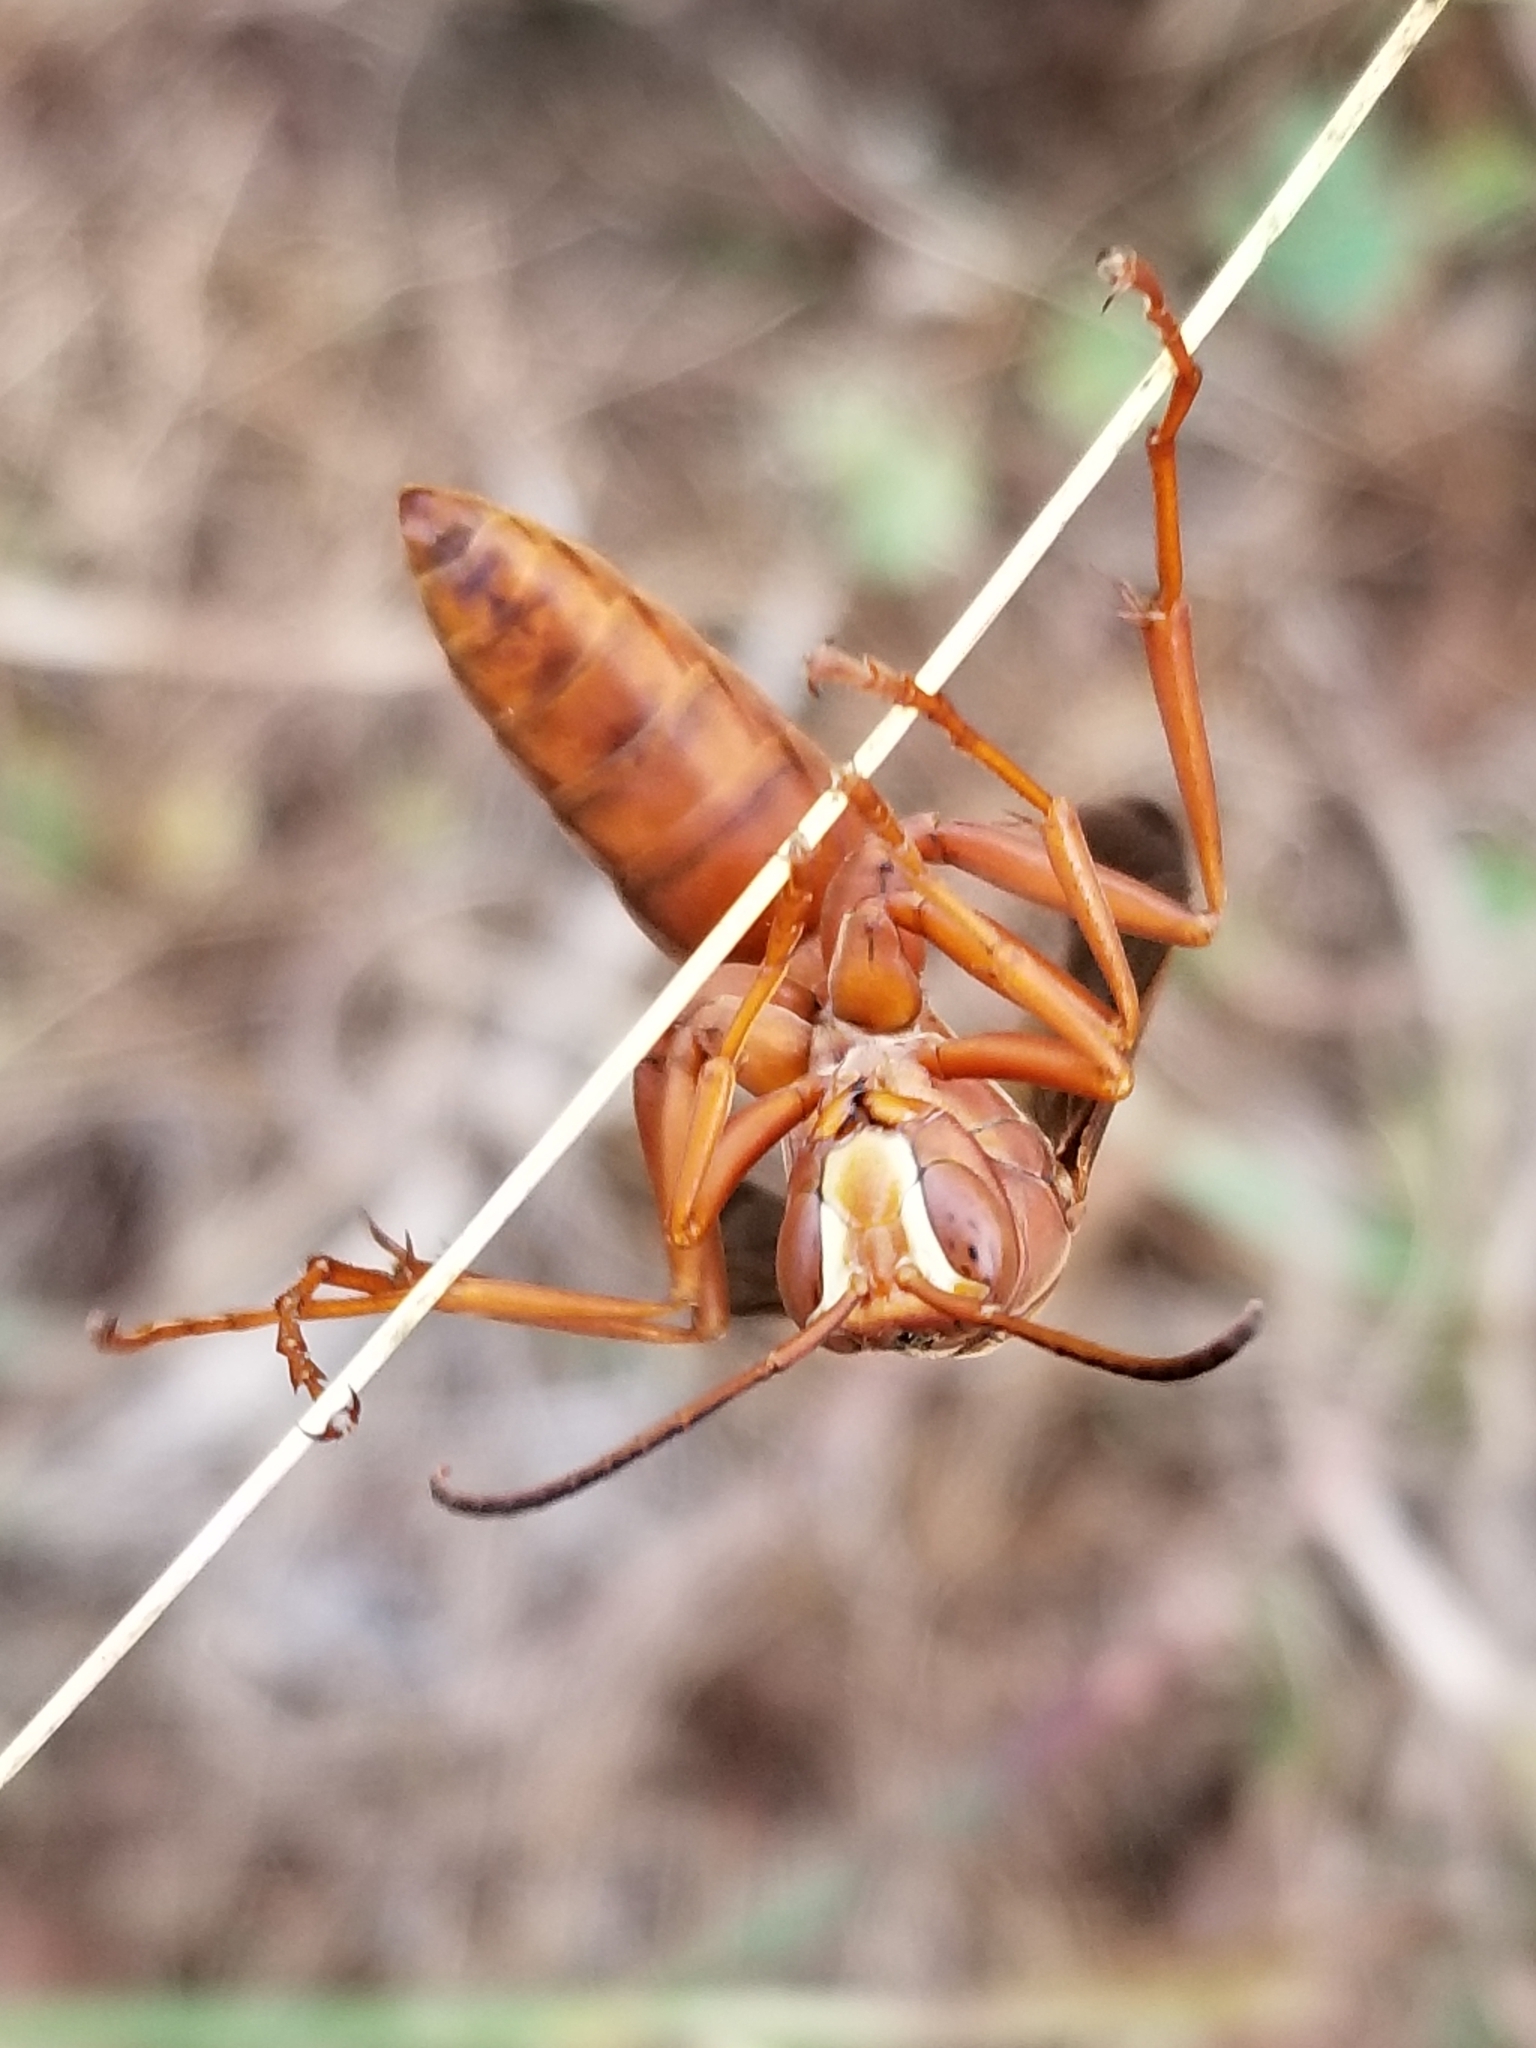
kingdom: Animalia
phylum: Arthropoda
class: Insecta
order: Hymenoptera
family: Eumenidae
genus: Polistes
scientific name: Polistes carolina
